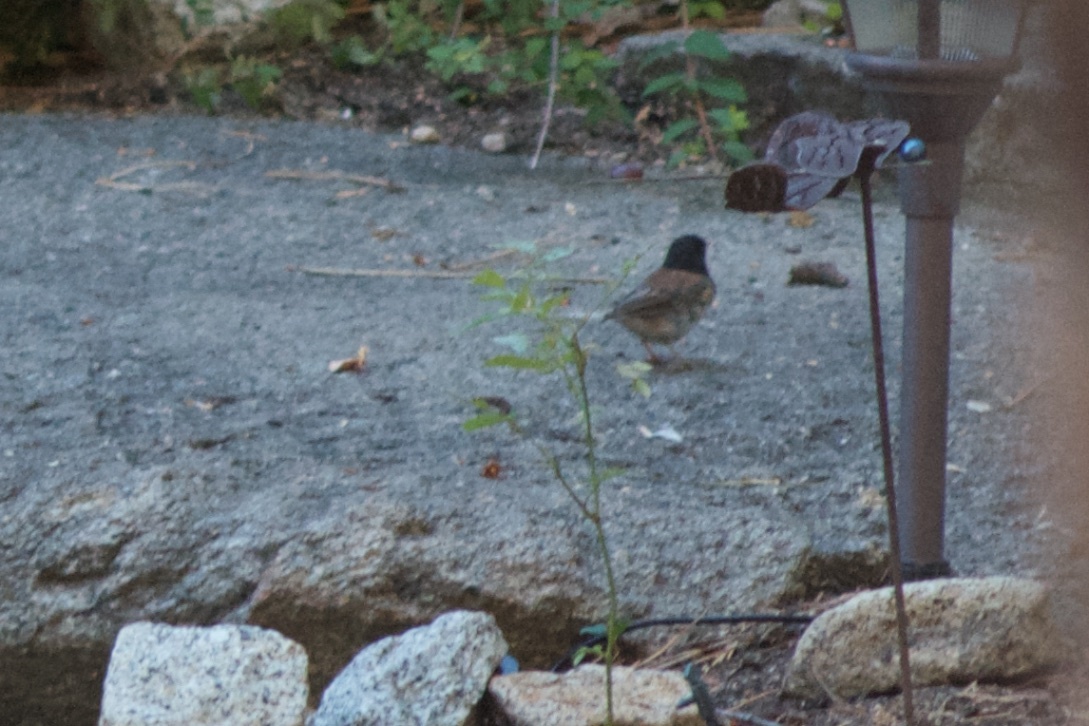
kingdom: Animalia
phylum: Chordata
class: Aves
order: Passeriformes
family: Passerellidae
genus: Junco
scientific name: Junco hyemalis
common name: Dark-eyed junco
